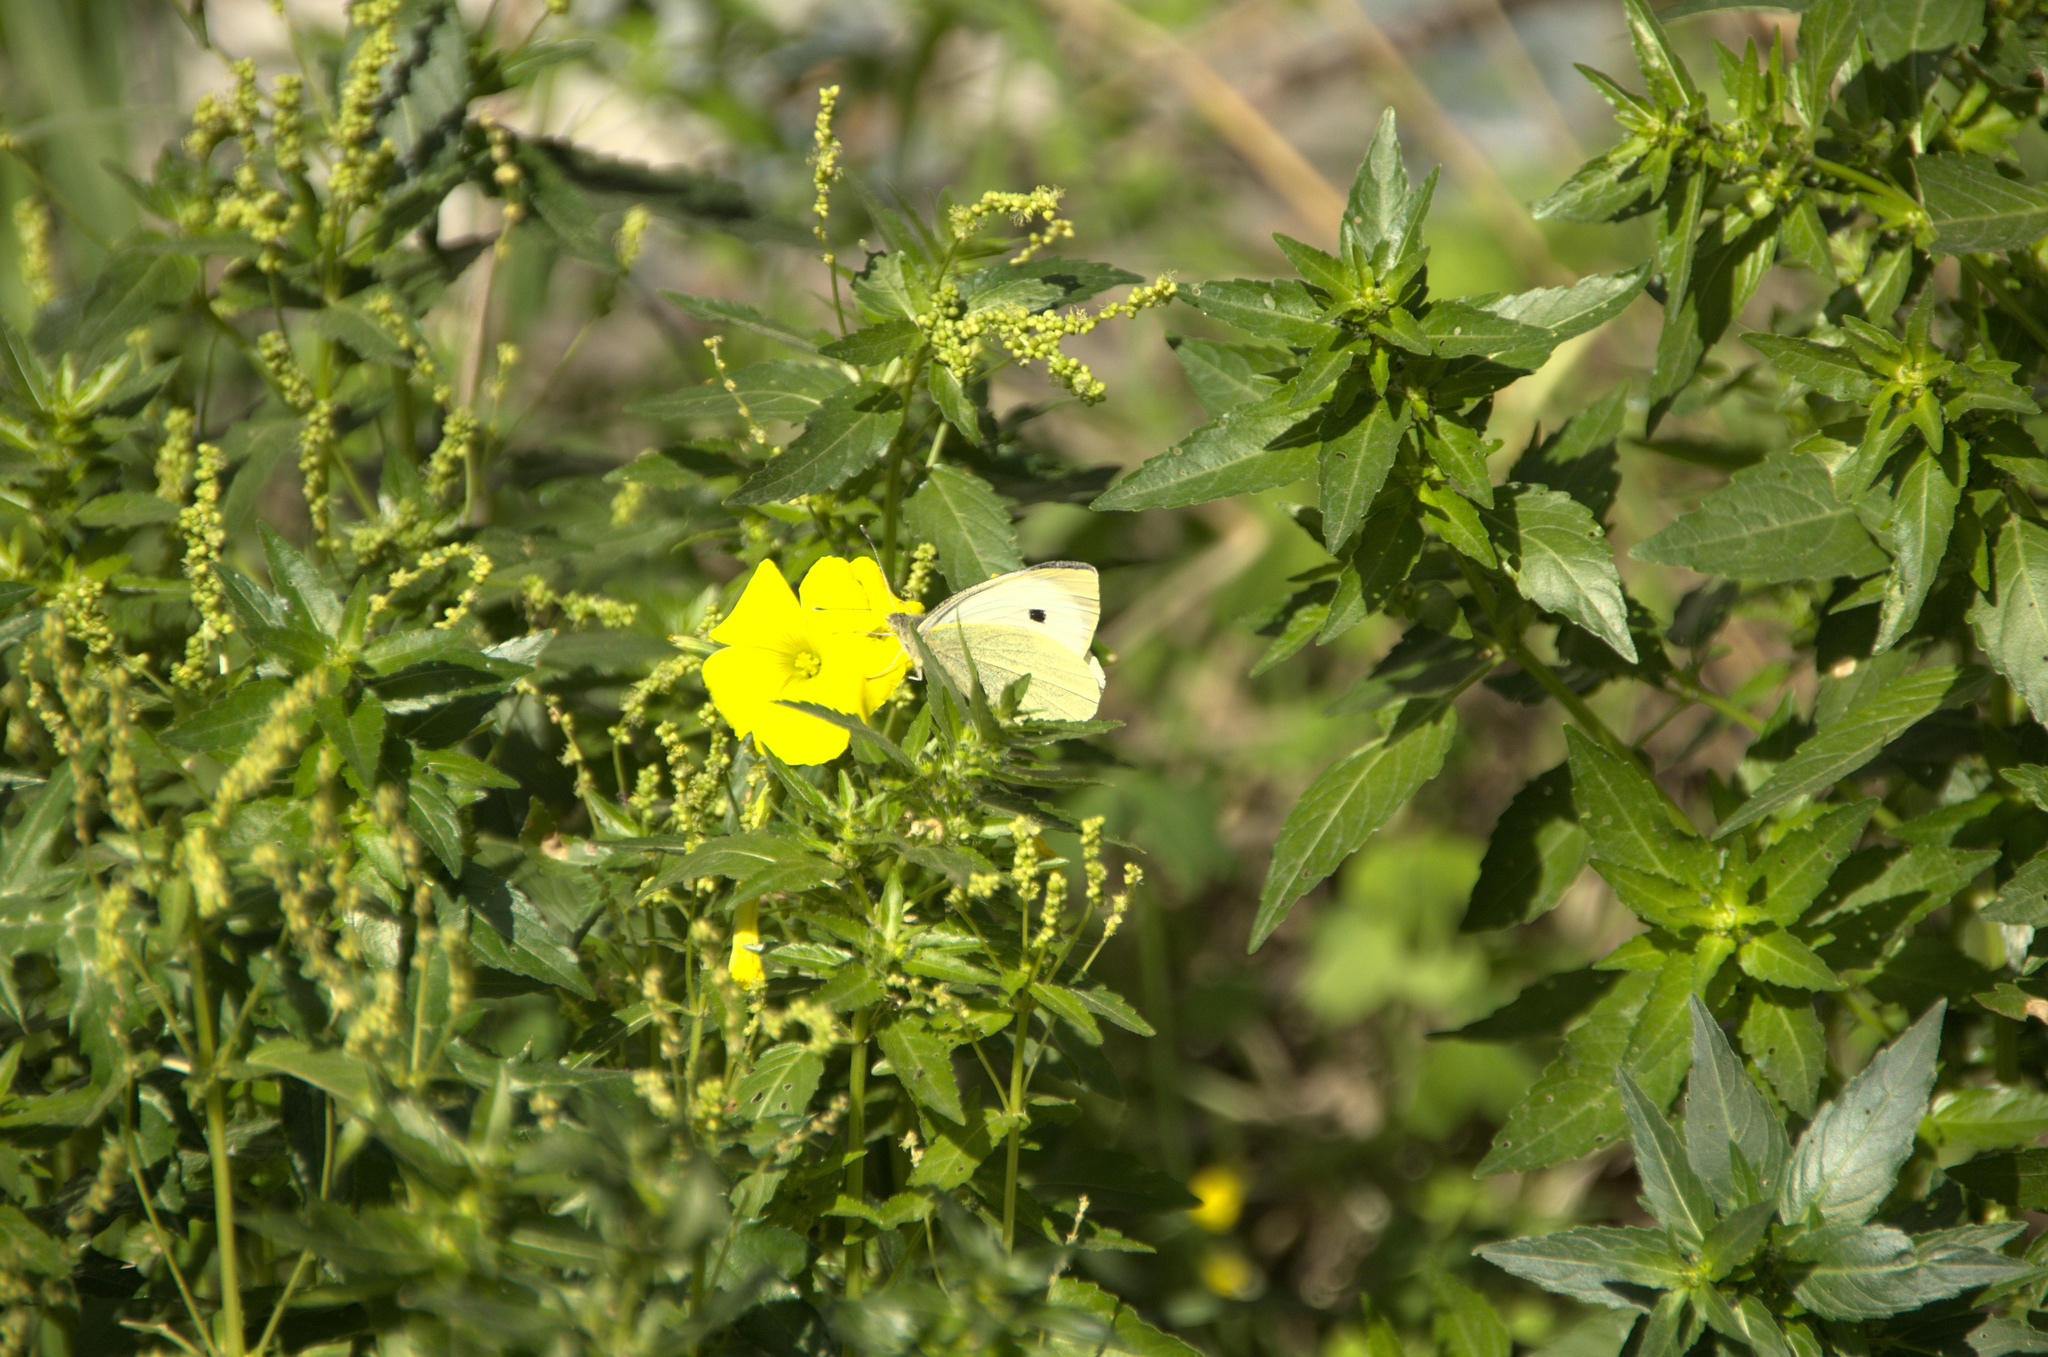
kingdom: Animalia
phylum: Arthropoda
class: Insecta
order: Lepidoptera
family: Pieridae
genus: Pieris
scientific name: Pieris brassicae
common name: Large white
